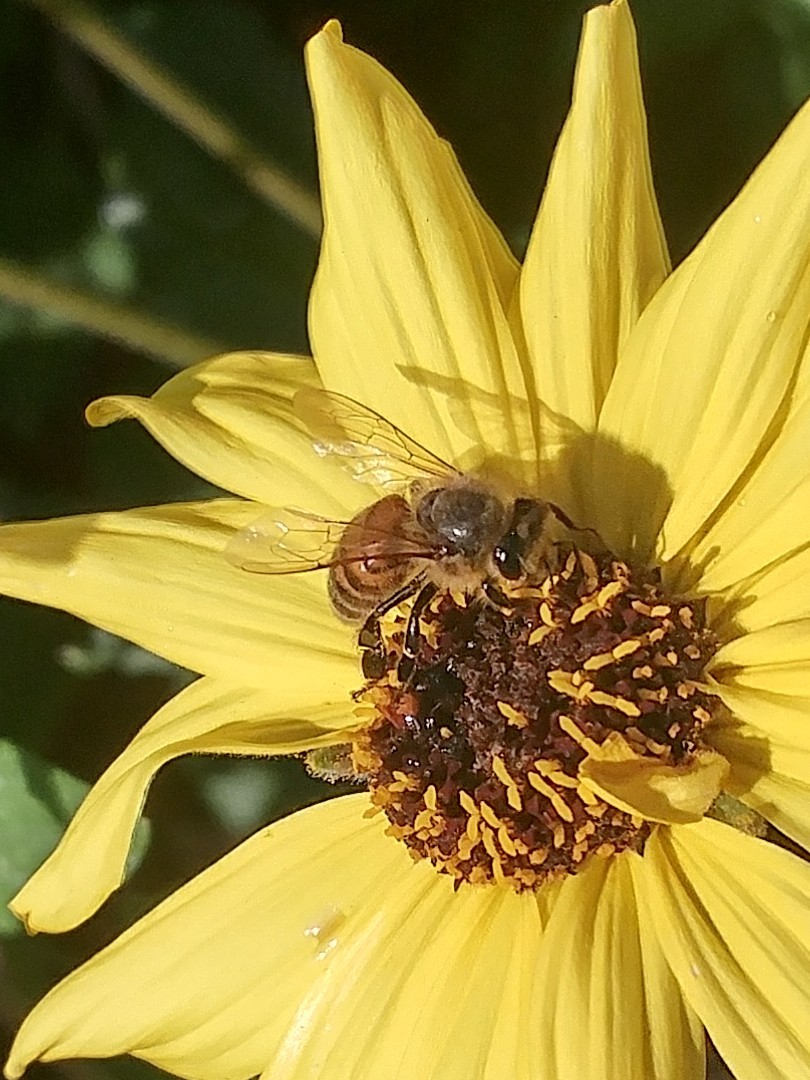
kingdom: Animalia
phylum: Arthropoda
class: Insecta
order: Hymenoptera
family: Apidae
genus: Apis
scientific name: Apis mellifera
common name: Honey bee
